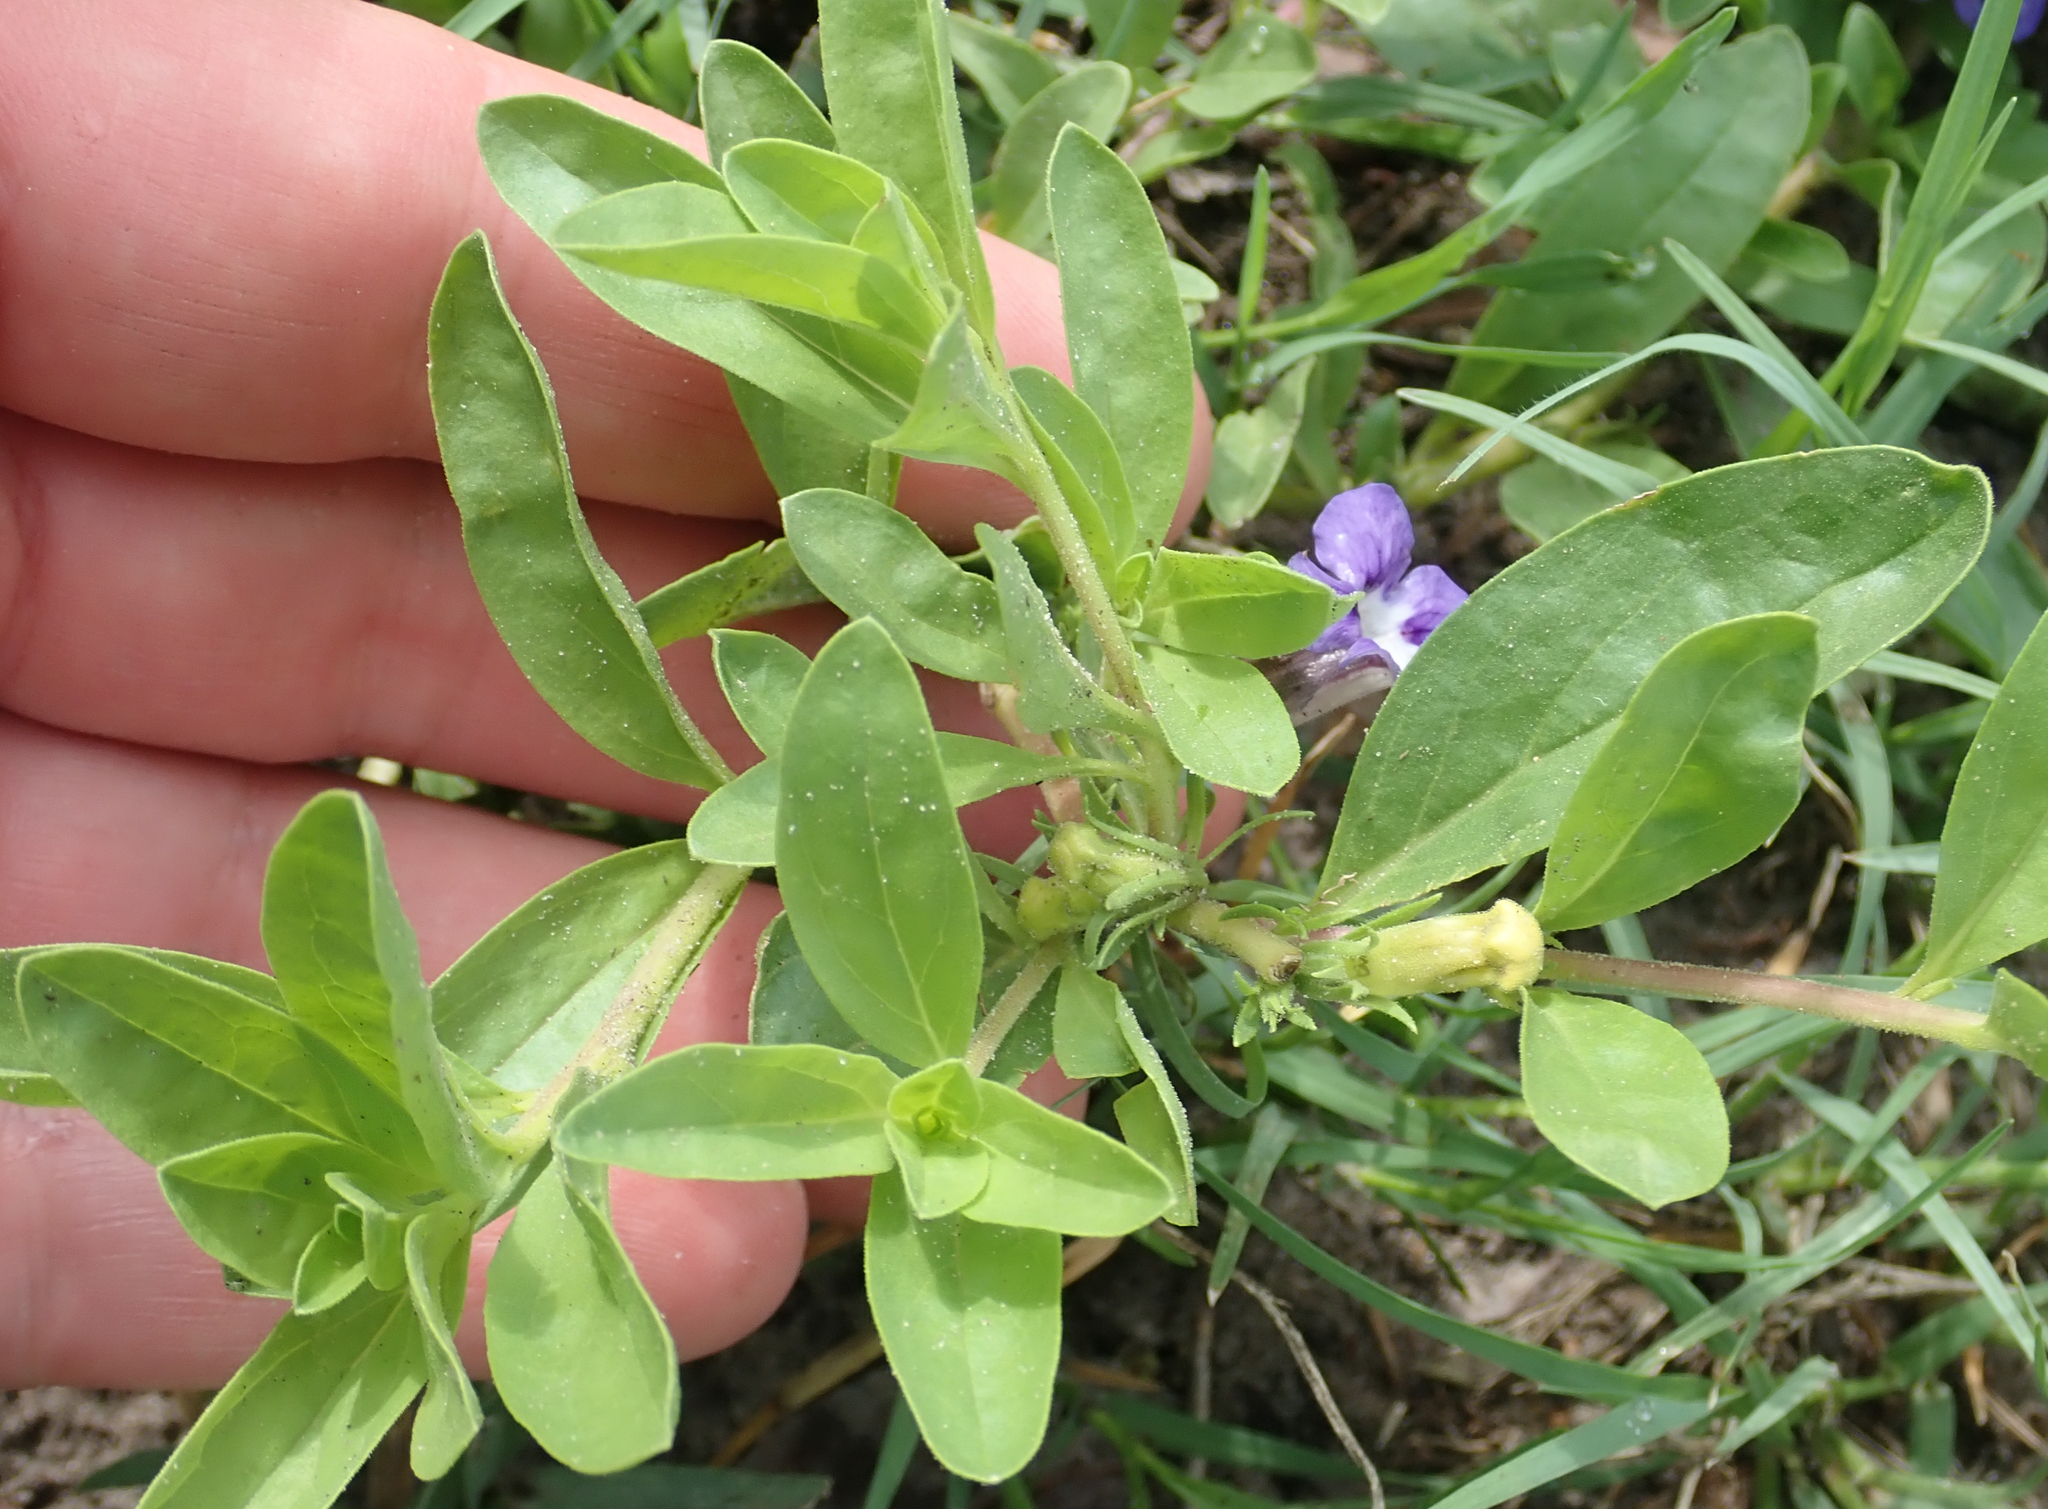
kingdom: Plantae
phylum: Tracheophyta
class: Magnoliopsida
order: Lamiales
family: Scrophulariaceae
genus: Aptosimum
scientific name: Aptosimum decumbens
